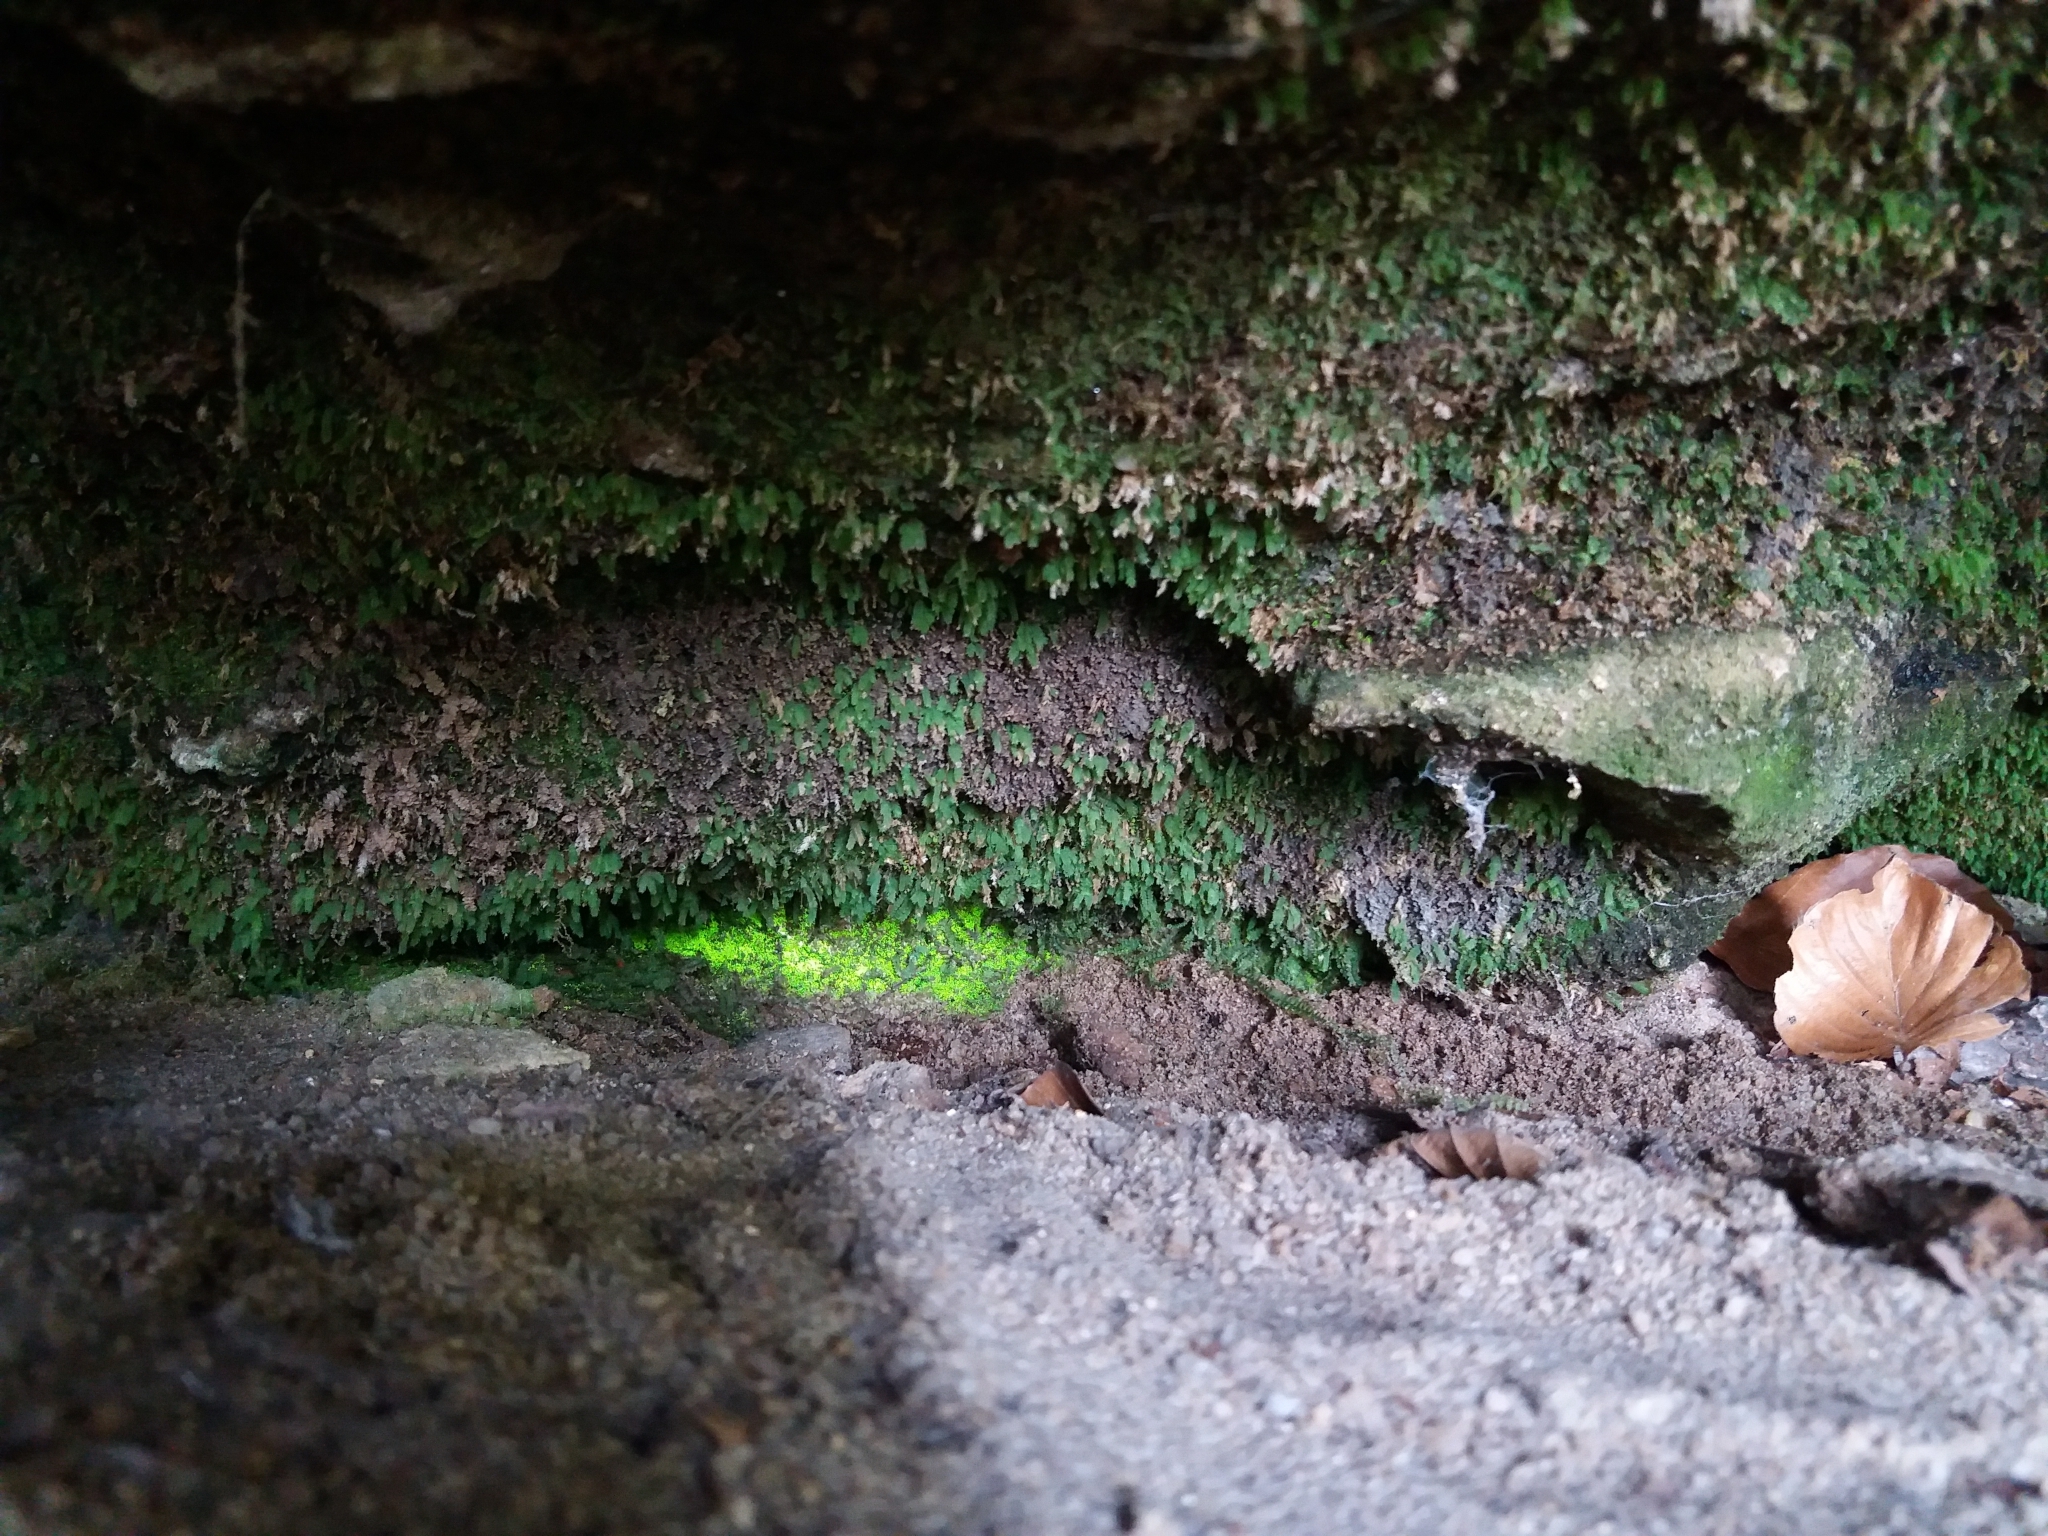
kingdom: Plantae
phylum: Bryophyta
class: Bryopsida
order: Dicranales
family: Schistostegaceae
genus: Schistostega
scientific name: Schistostega pennata
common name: Luminous moss
